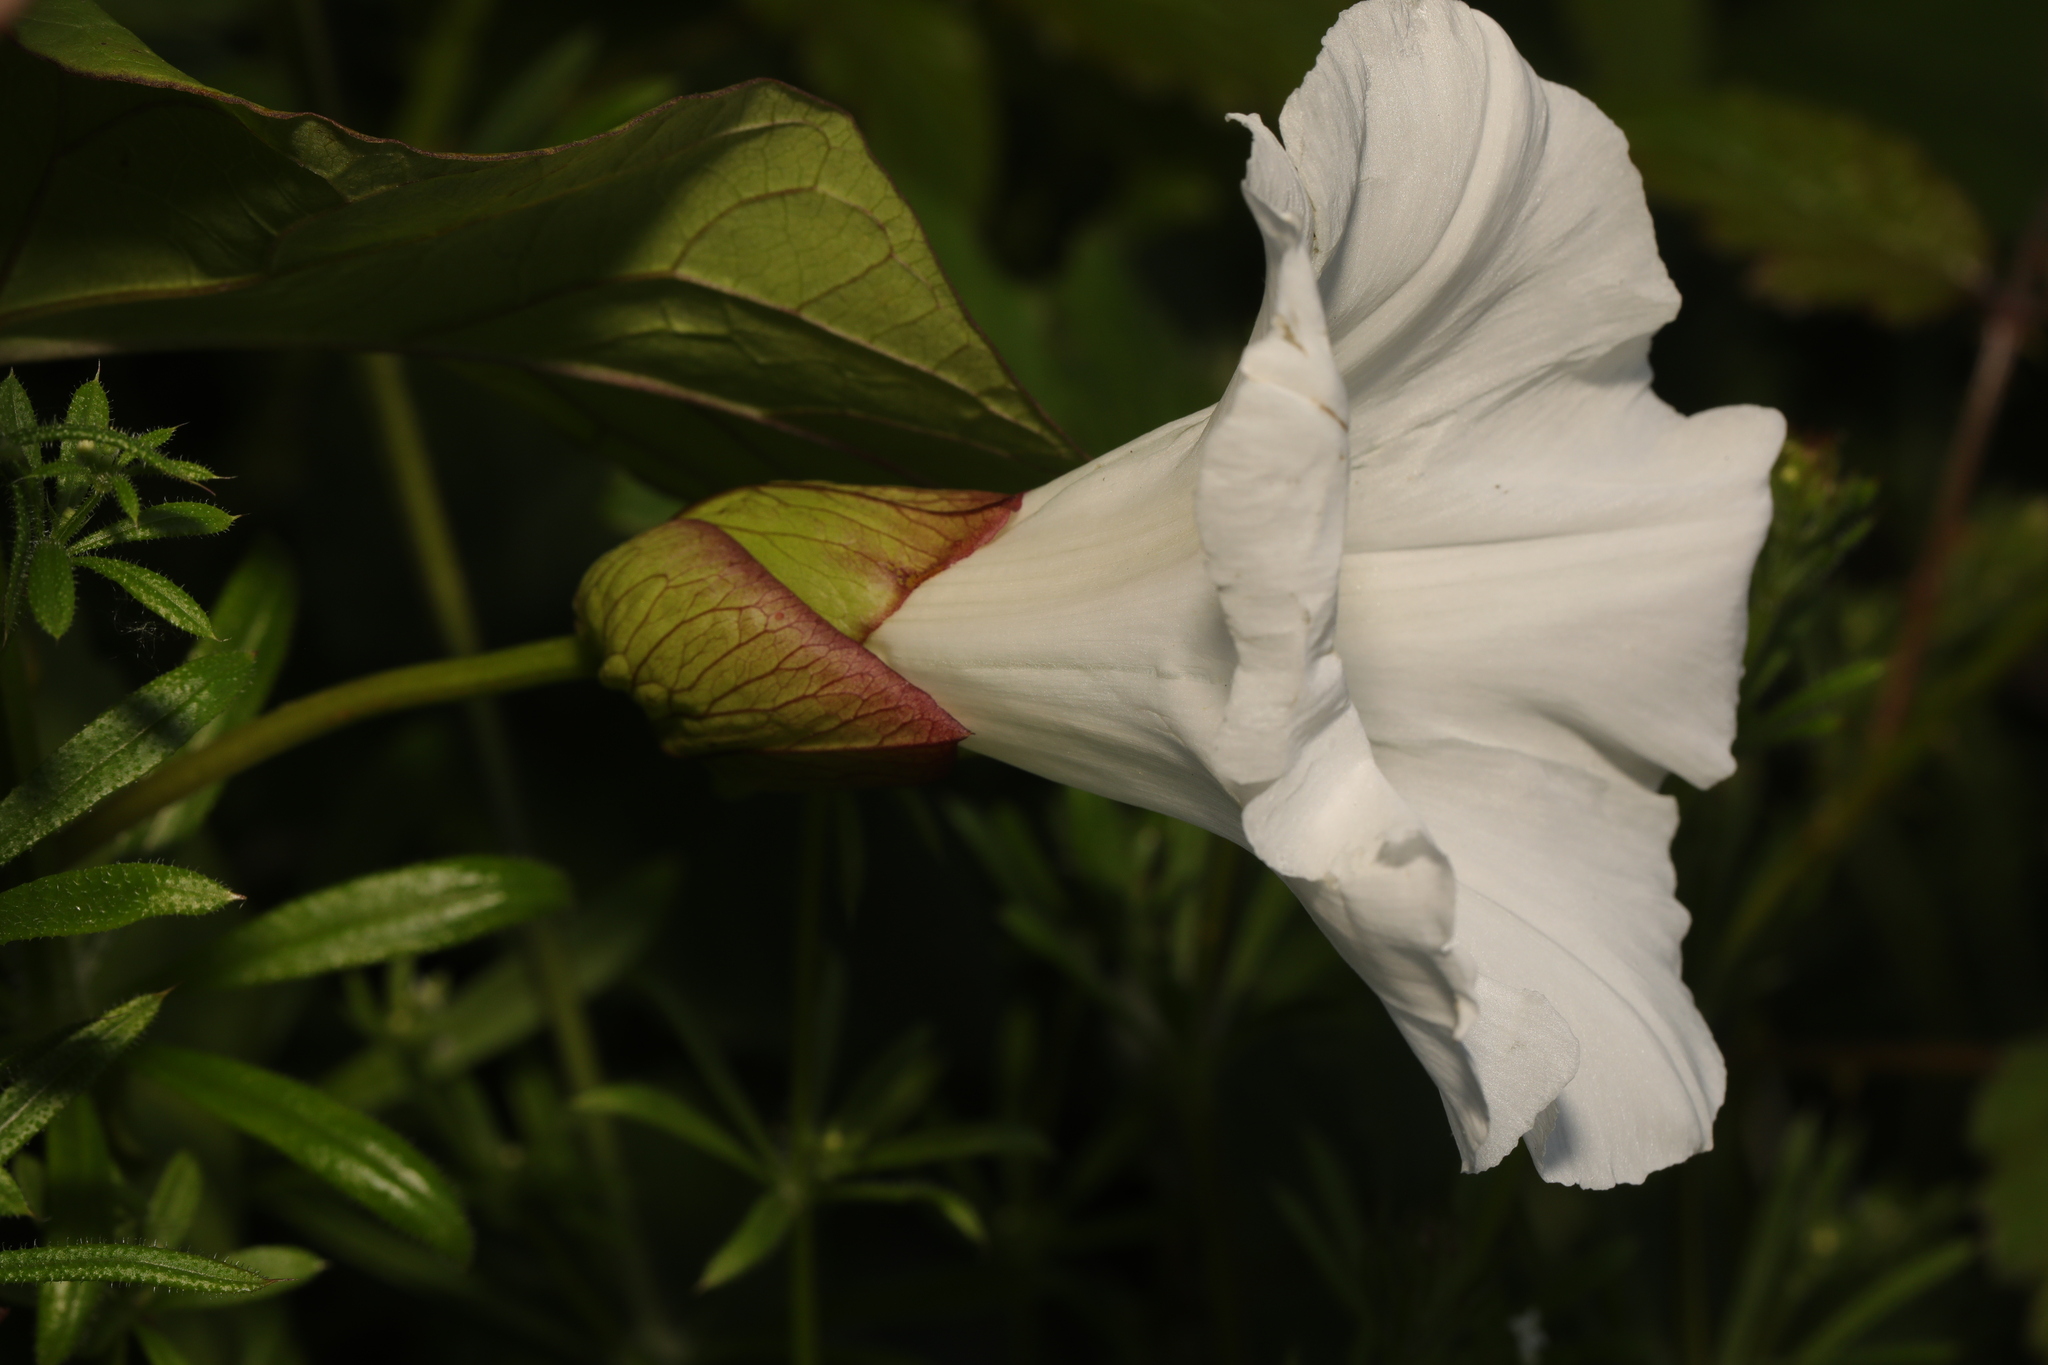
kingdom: Plantae
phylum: Tracheophyta
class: Magnoliopsida
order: Solanales
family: Convolvulaceae
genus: Calystegia
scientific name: Calystegia silvatica
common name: Large bindweed
